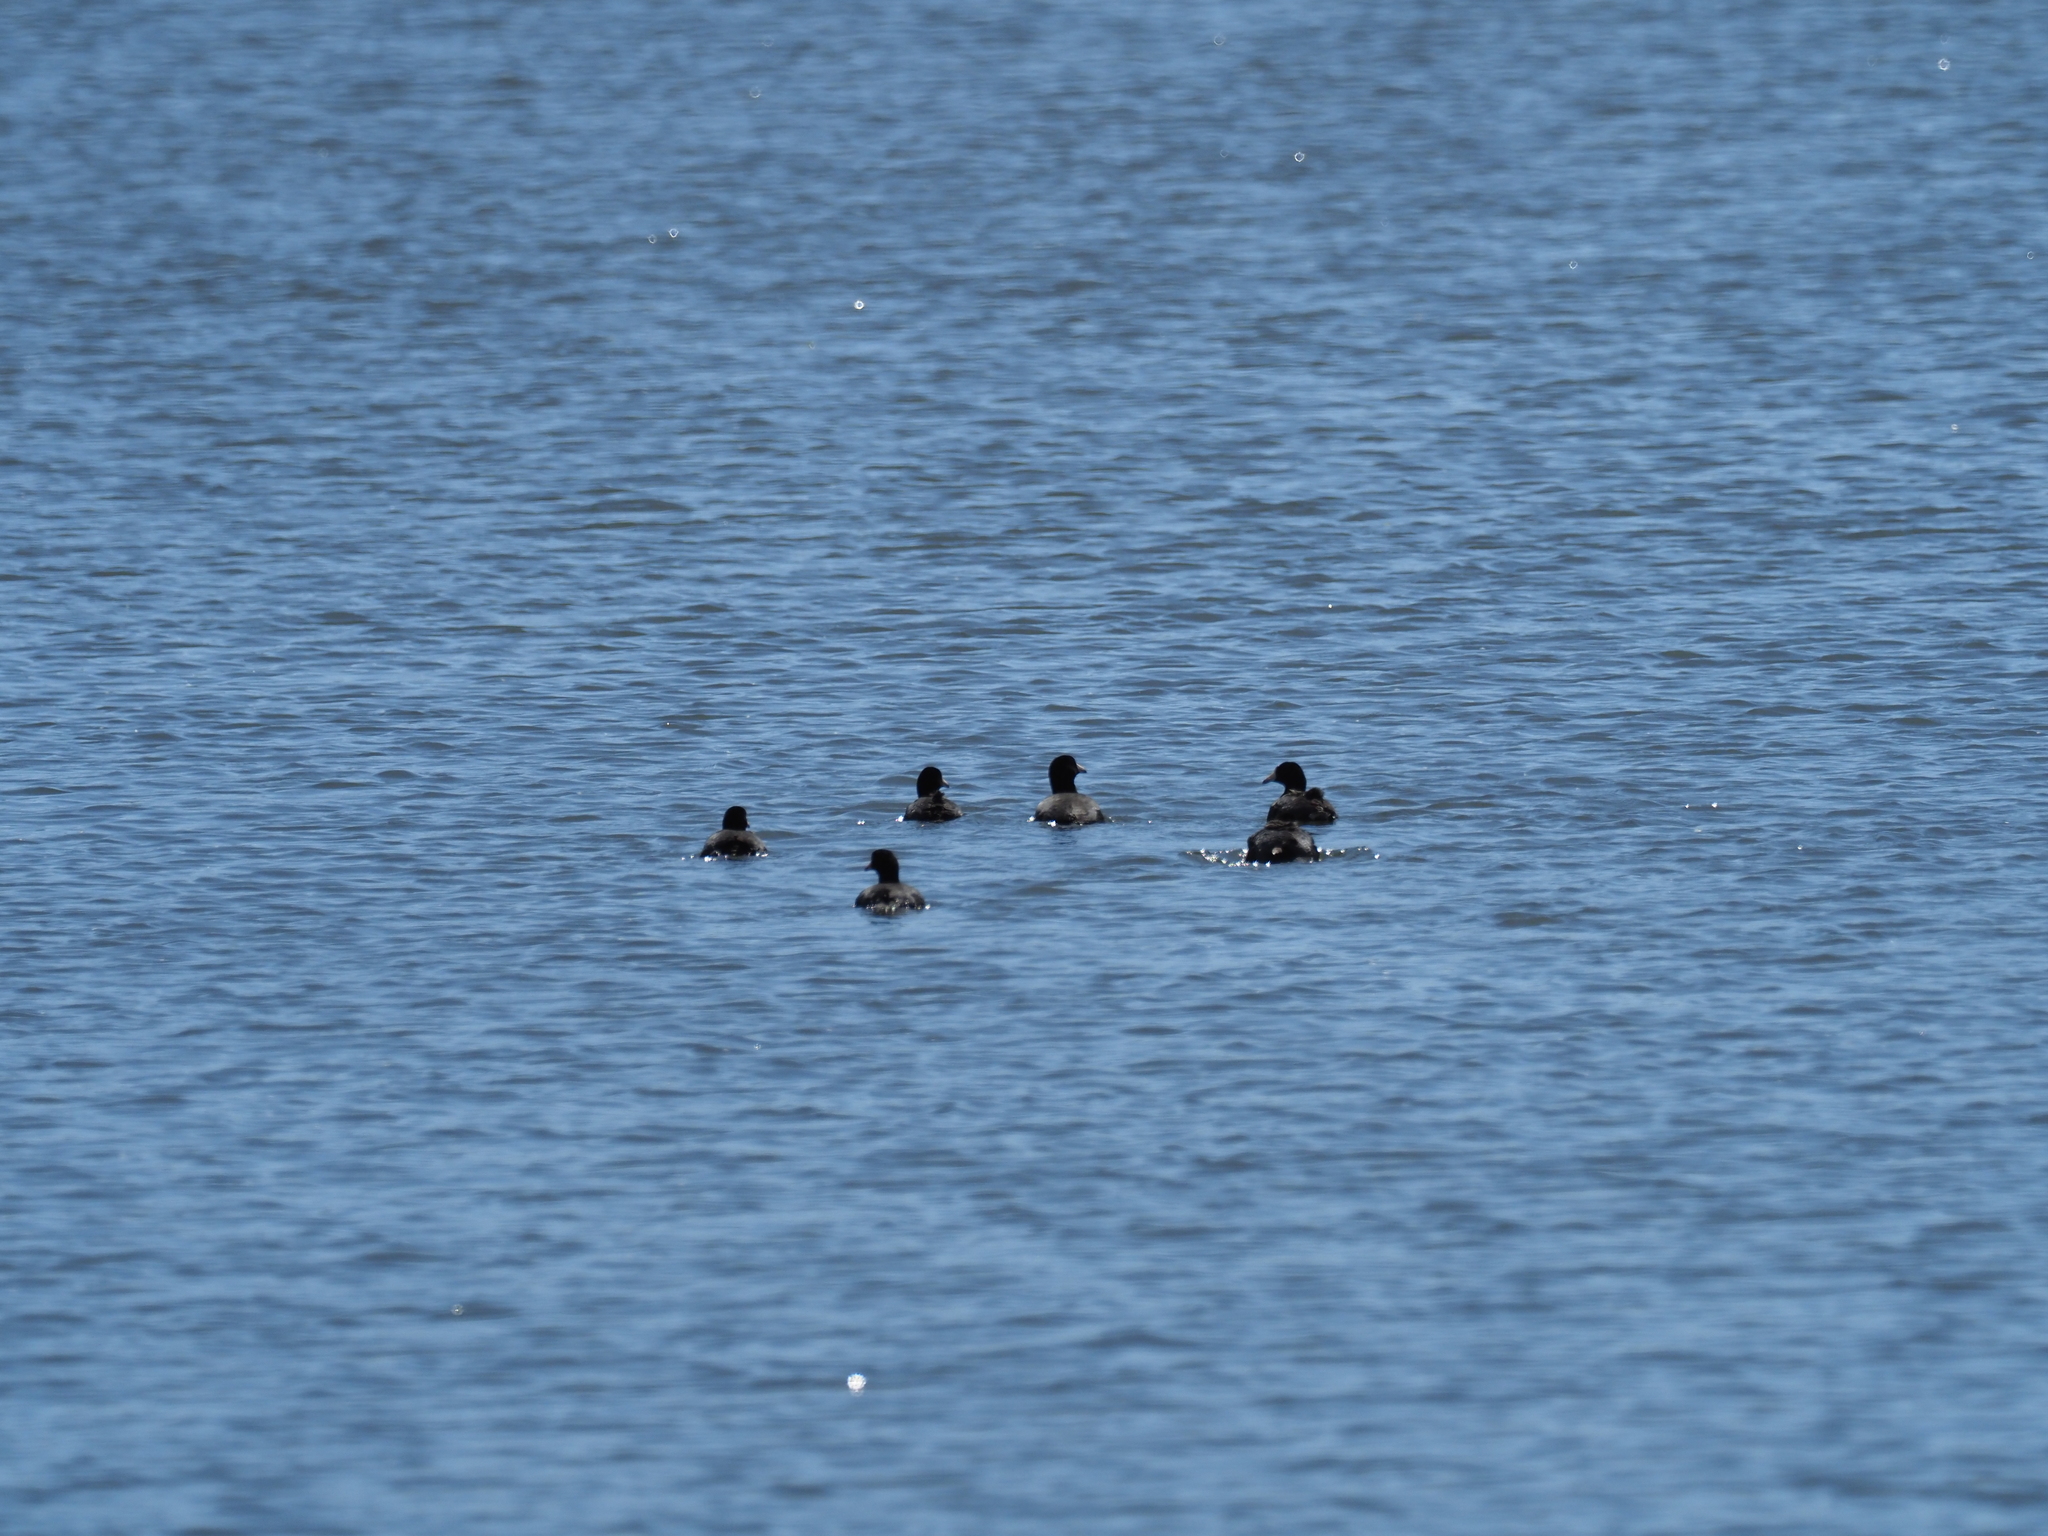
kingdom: Animalia
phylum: Chordata
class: Aves
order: Gruiformes
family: Rallidae
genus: Fulica
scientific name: Fulica americana
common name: American coot
